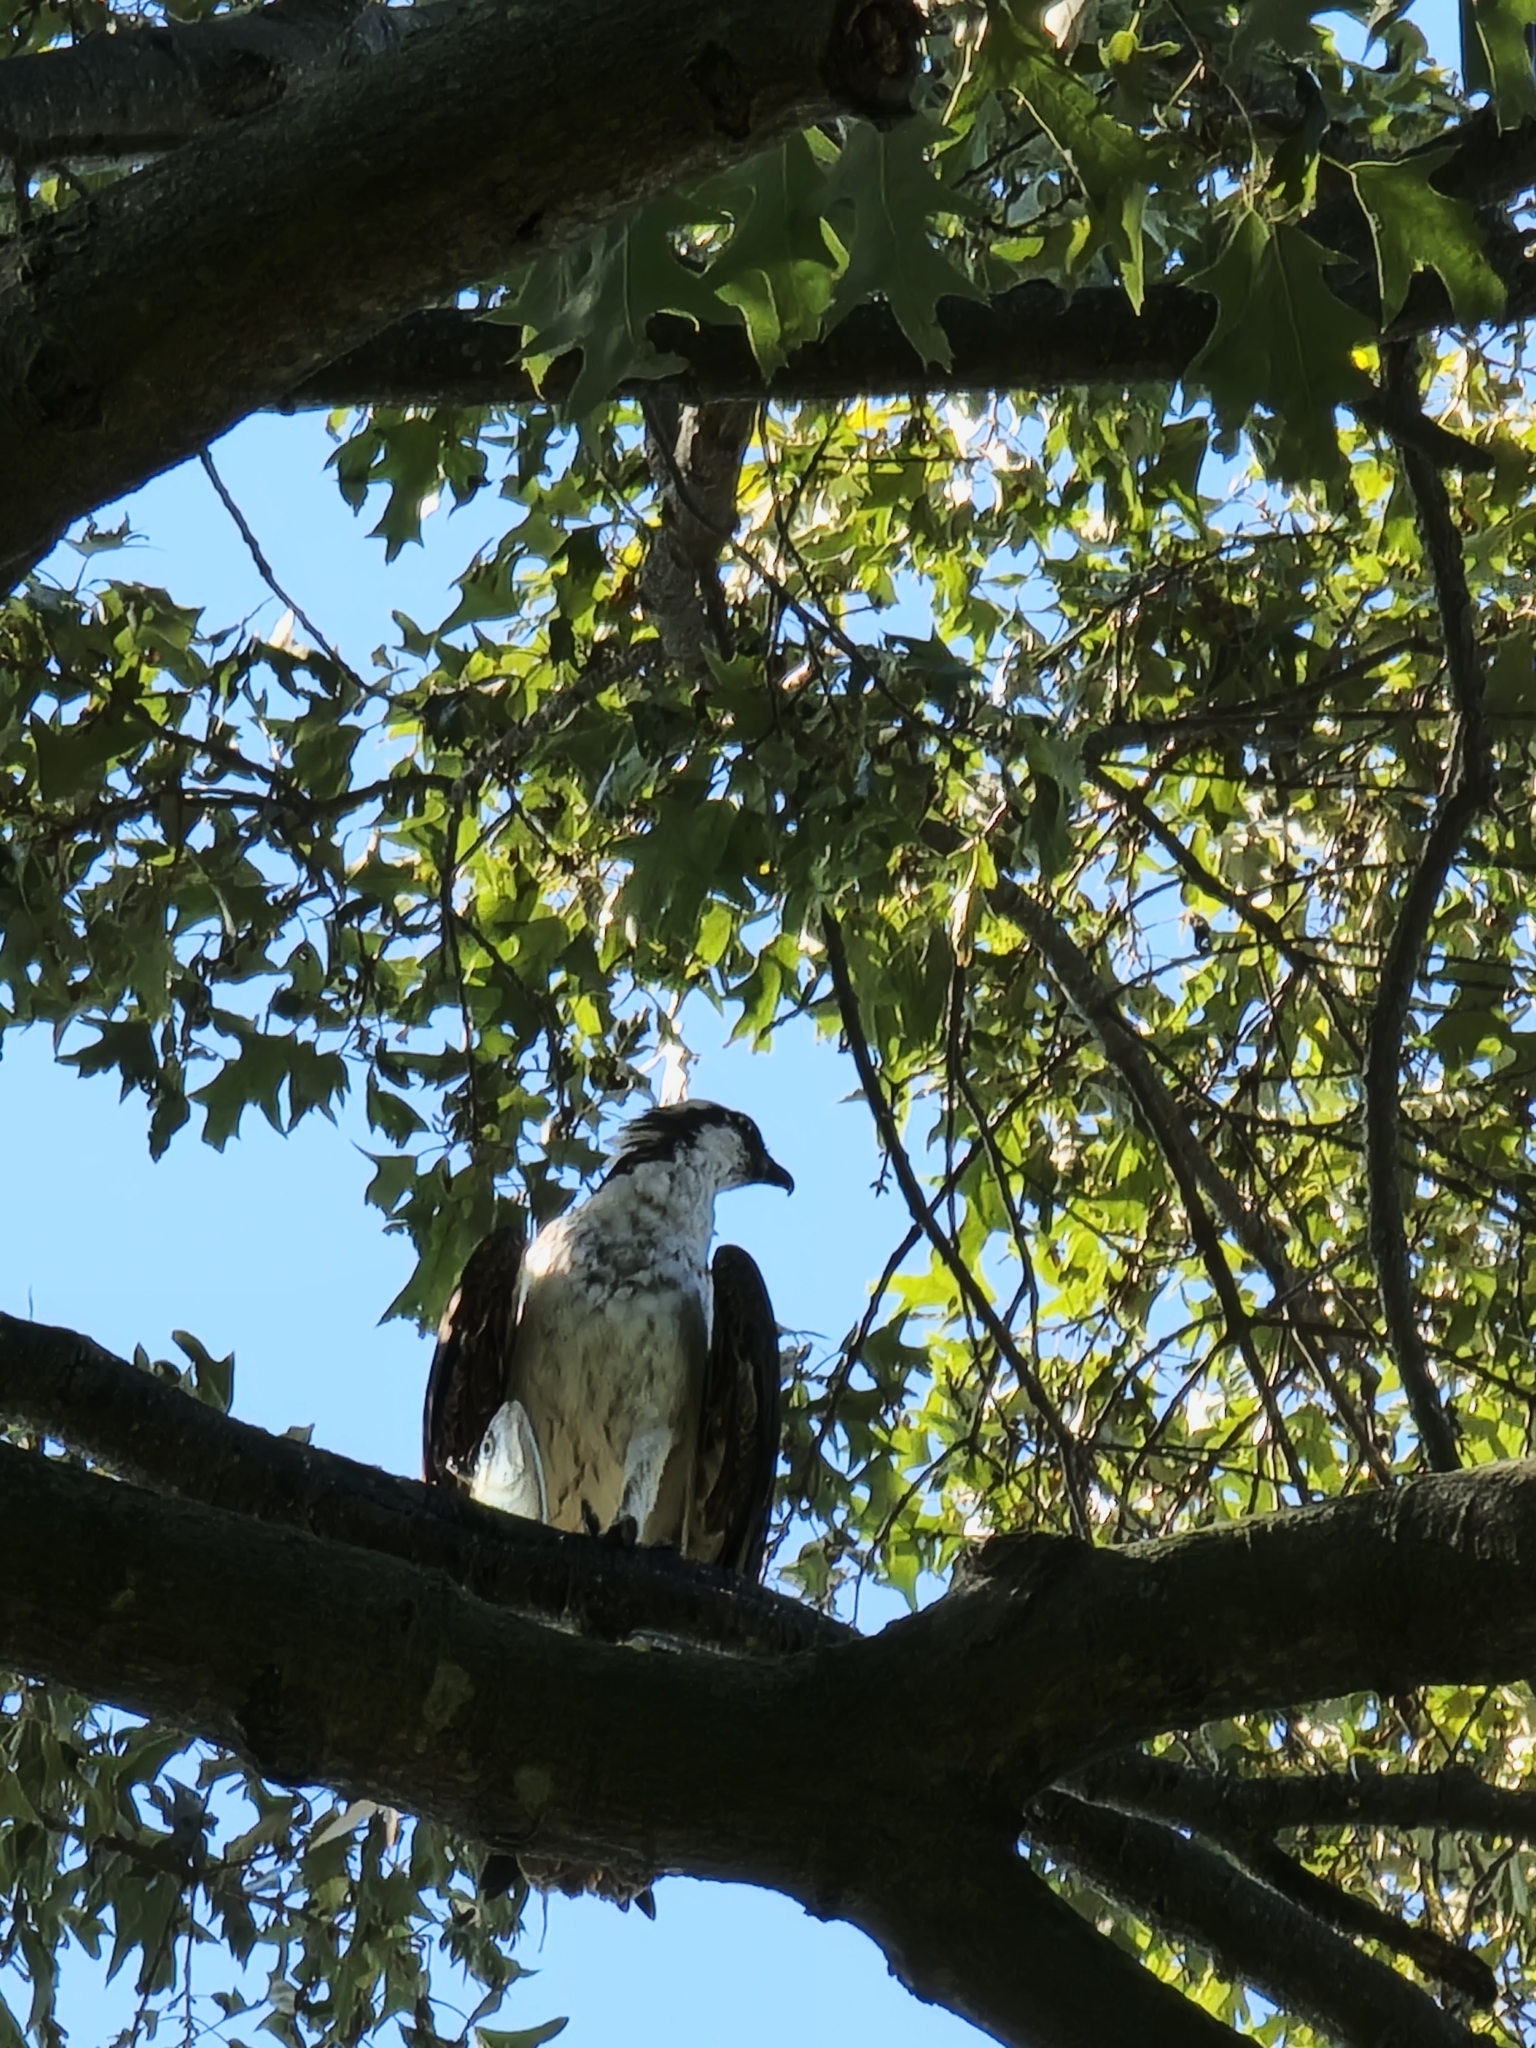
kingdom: Animalia
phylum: Chordata
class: Aves
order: Accipitriformes
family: Pandionidae
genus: Pandion
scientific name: Pandion haliaetus
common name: Osprey
